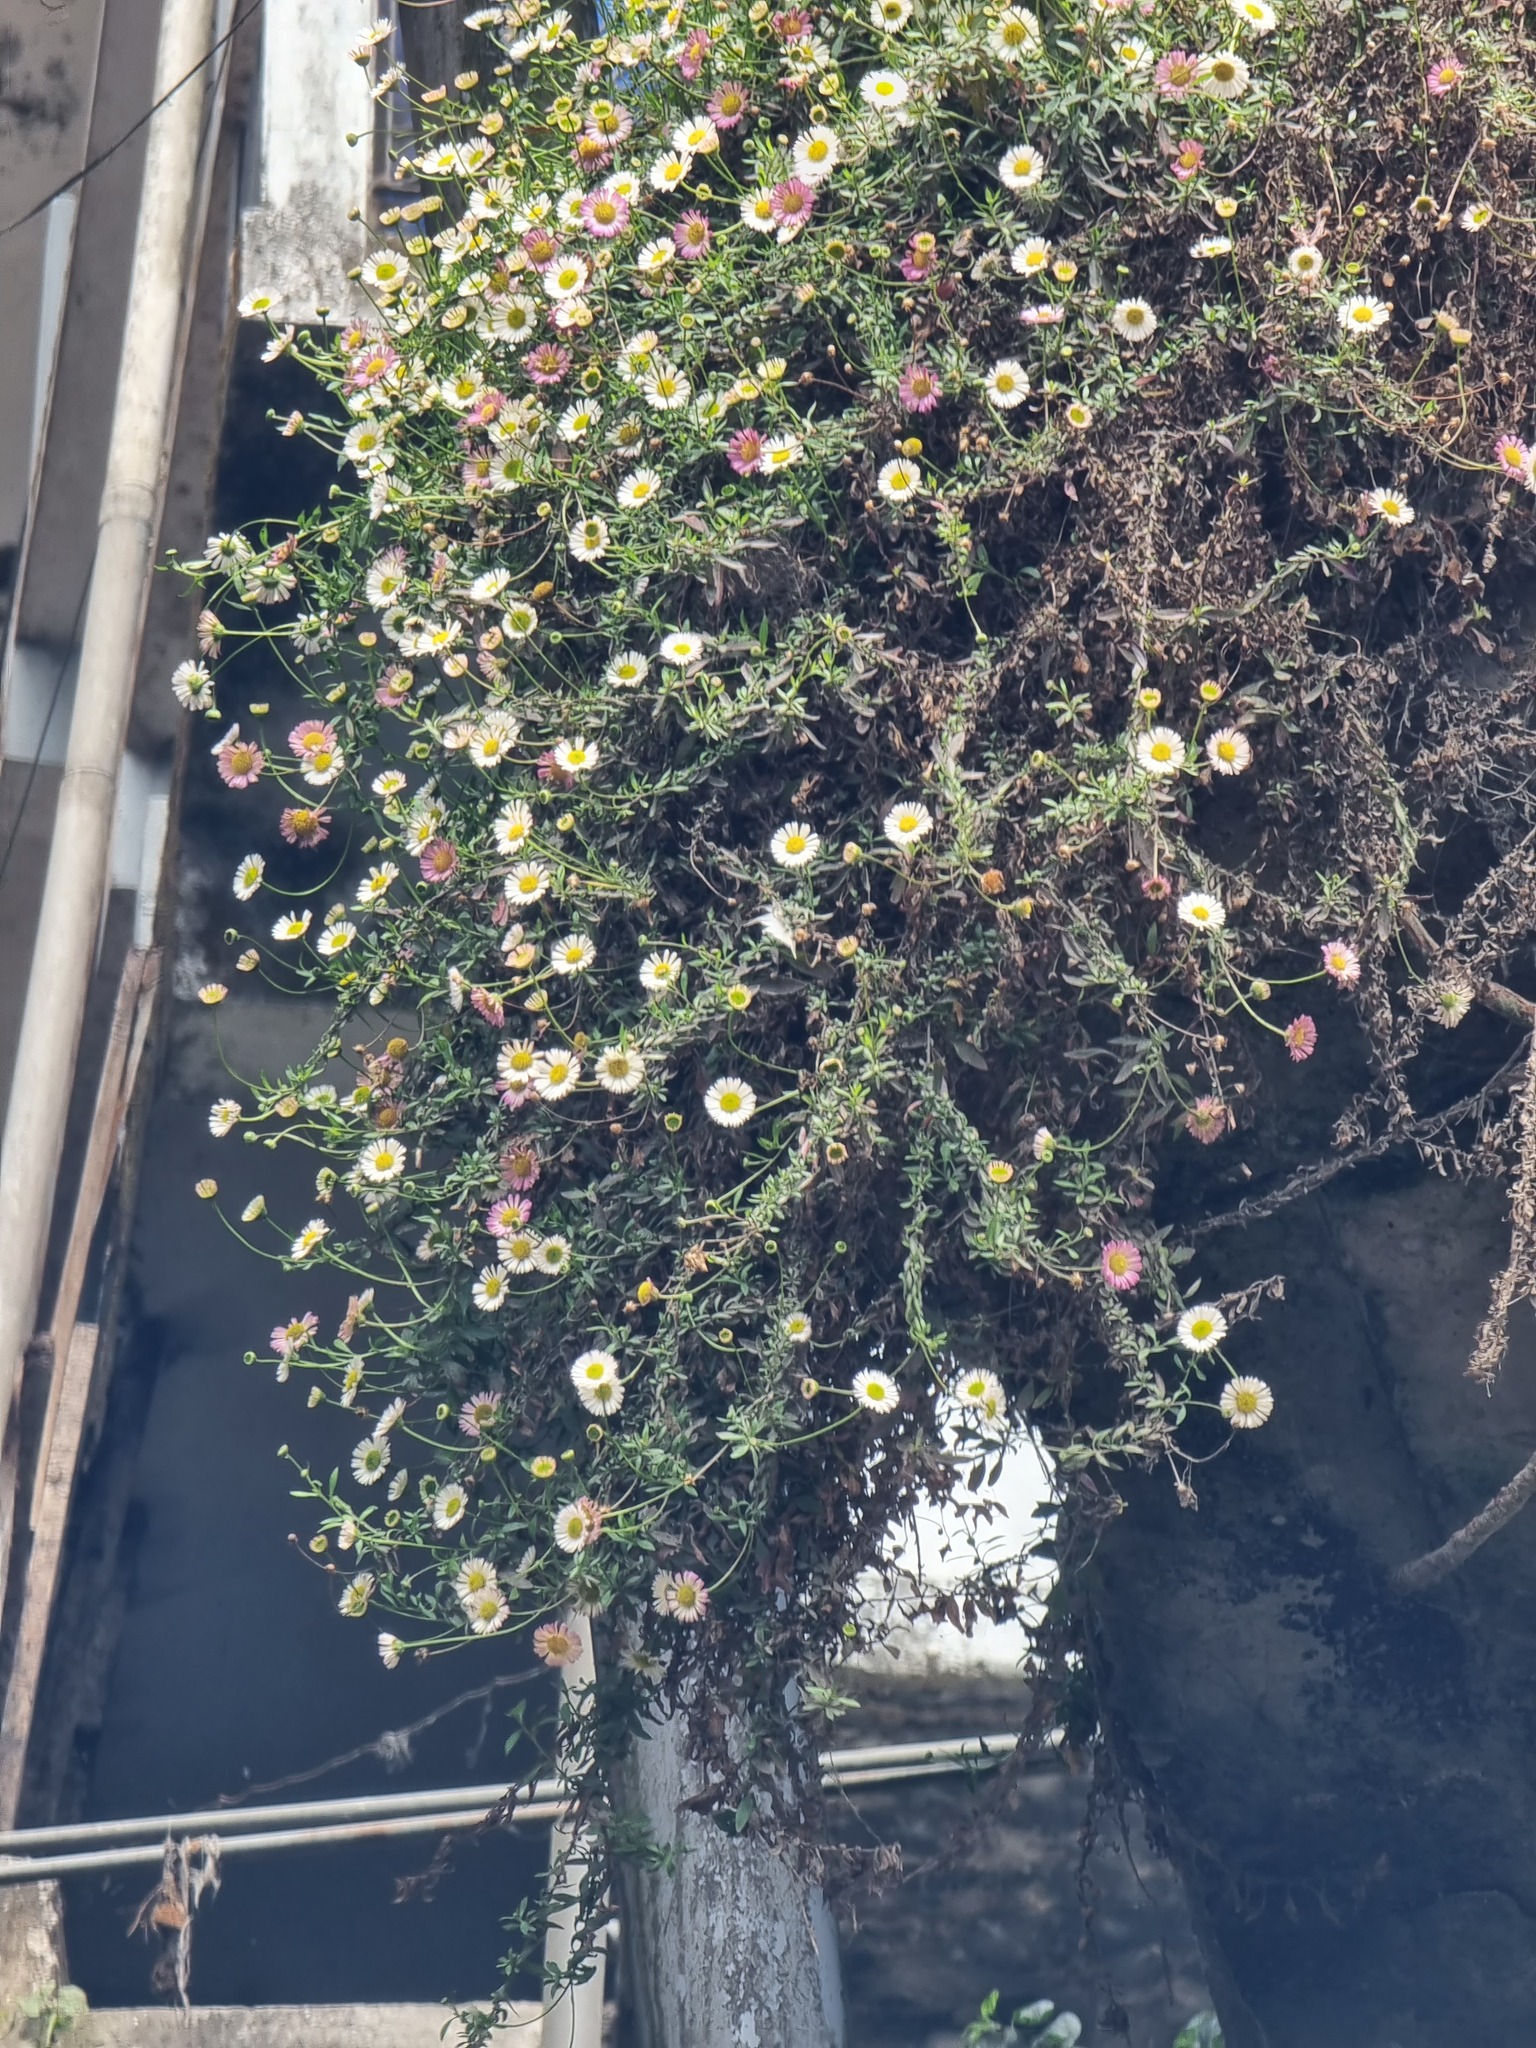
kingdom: Plantae
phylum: Tracheophyta
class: Magnoliopsida
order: Asterales
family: Asteraceae
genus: Erigeron
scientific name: Erigeron karvinskianus
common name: Mexican fleabane
